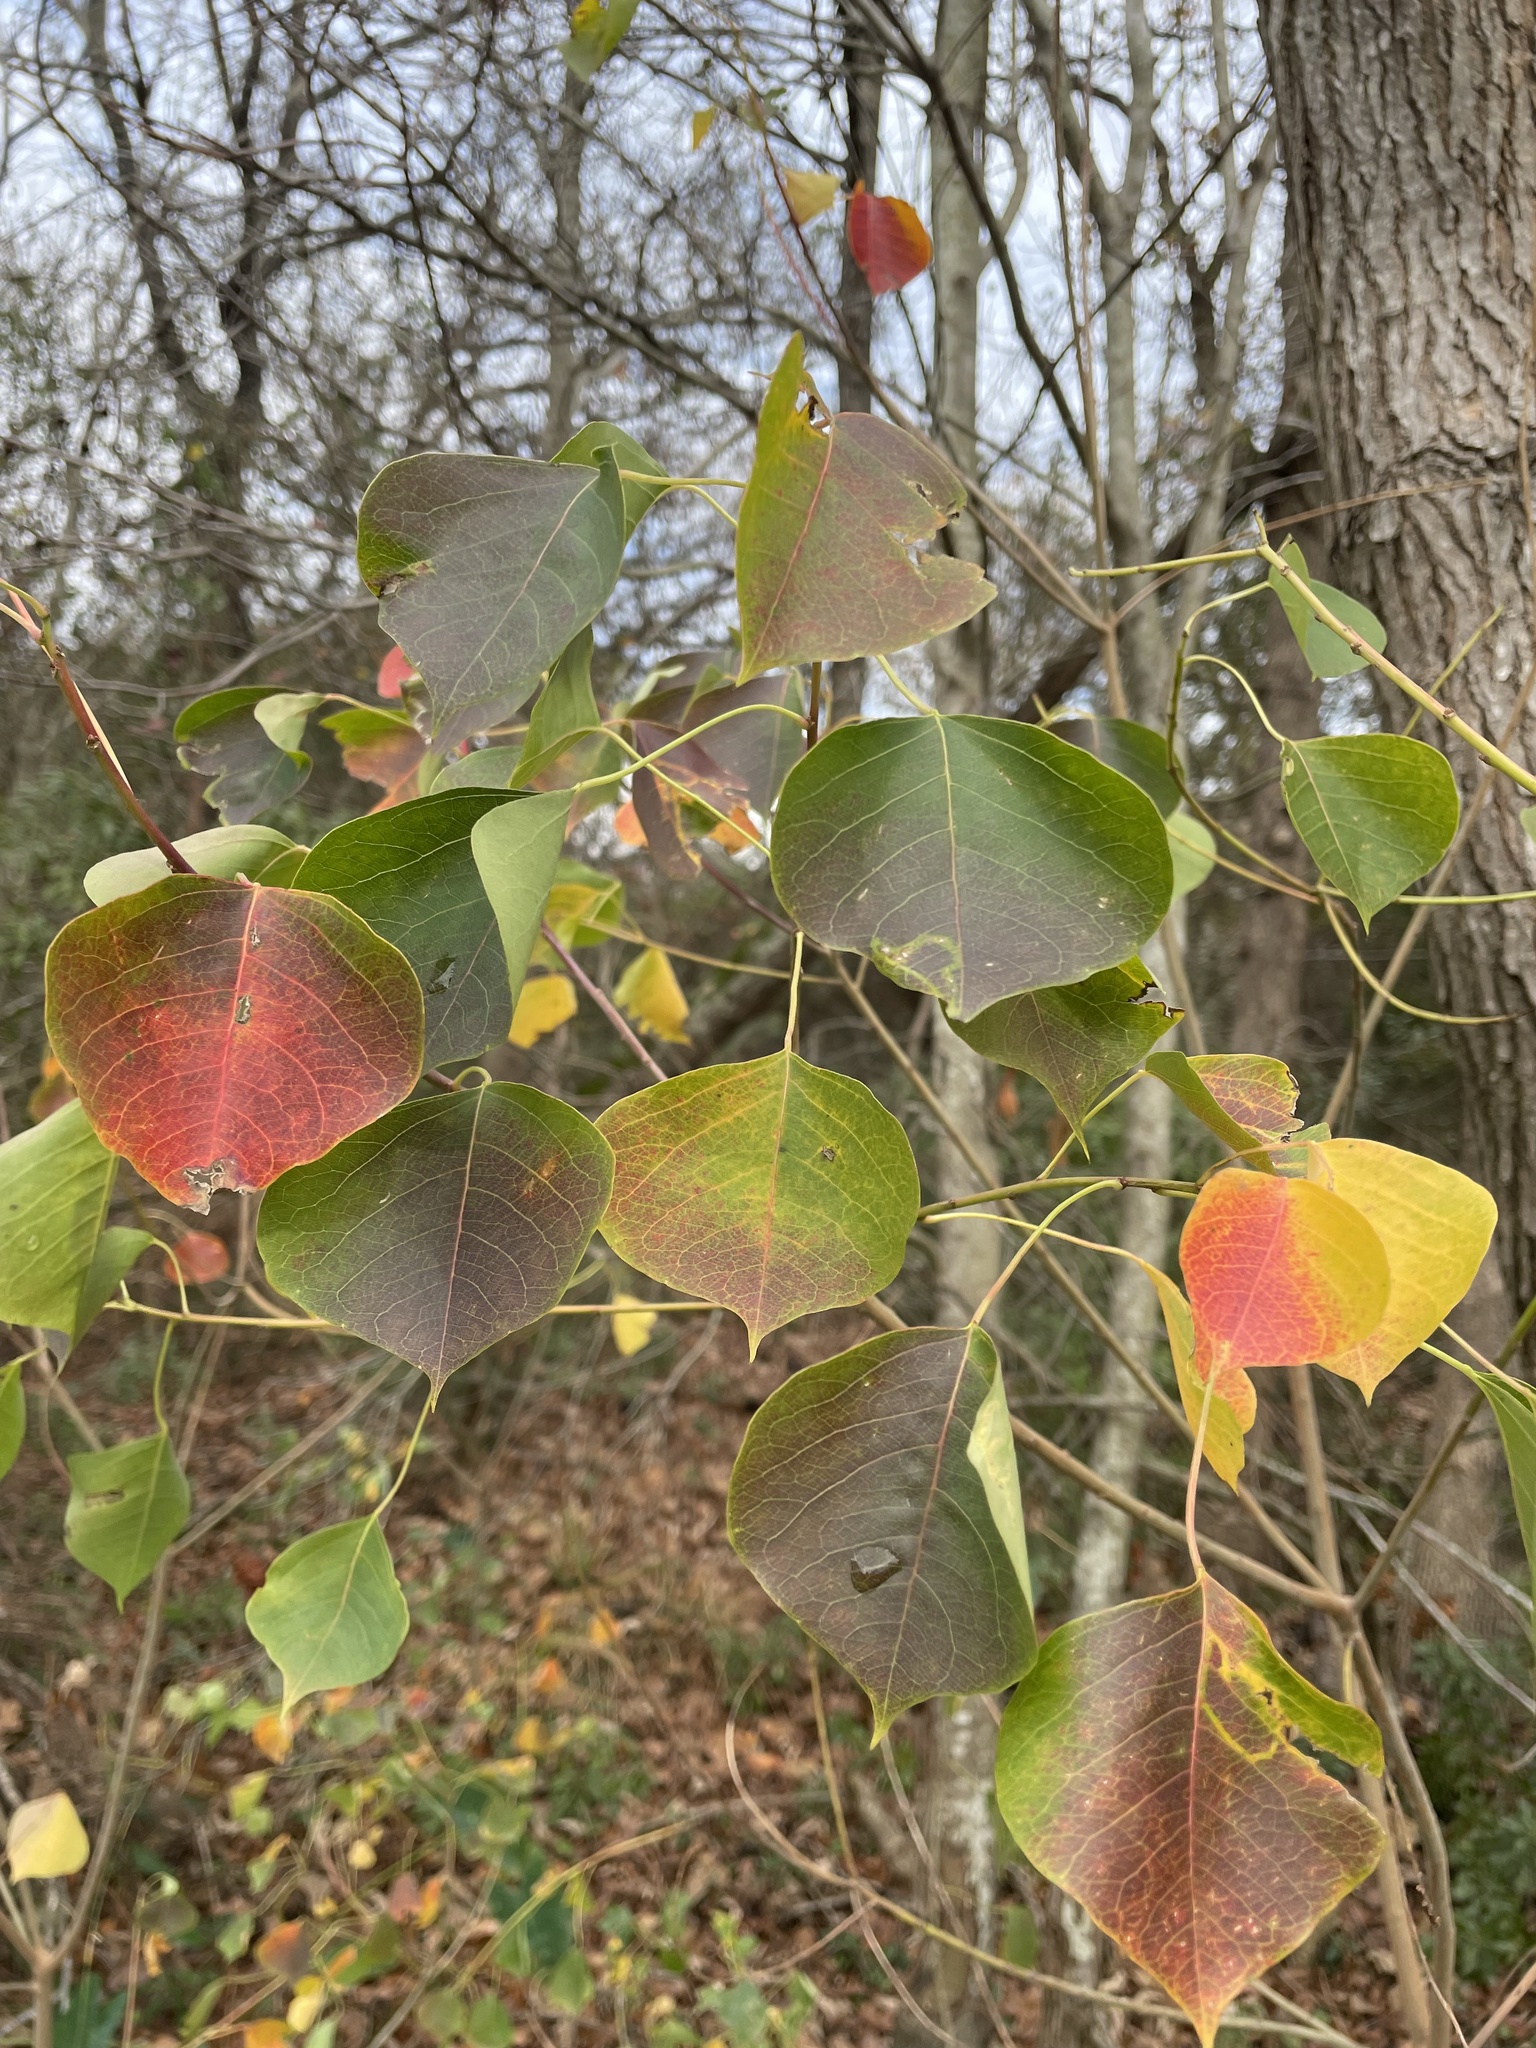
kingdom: Plantae
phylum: Tracheophyta
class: Magnoliopsida
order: Malpighiales
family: Euphorbiaceae
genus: Triadica
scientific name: Triadica sebifera
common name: Chinese tallow
